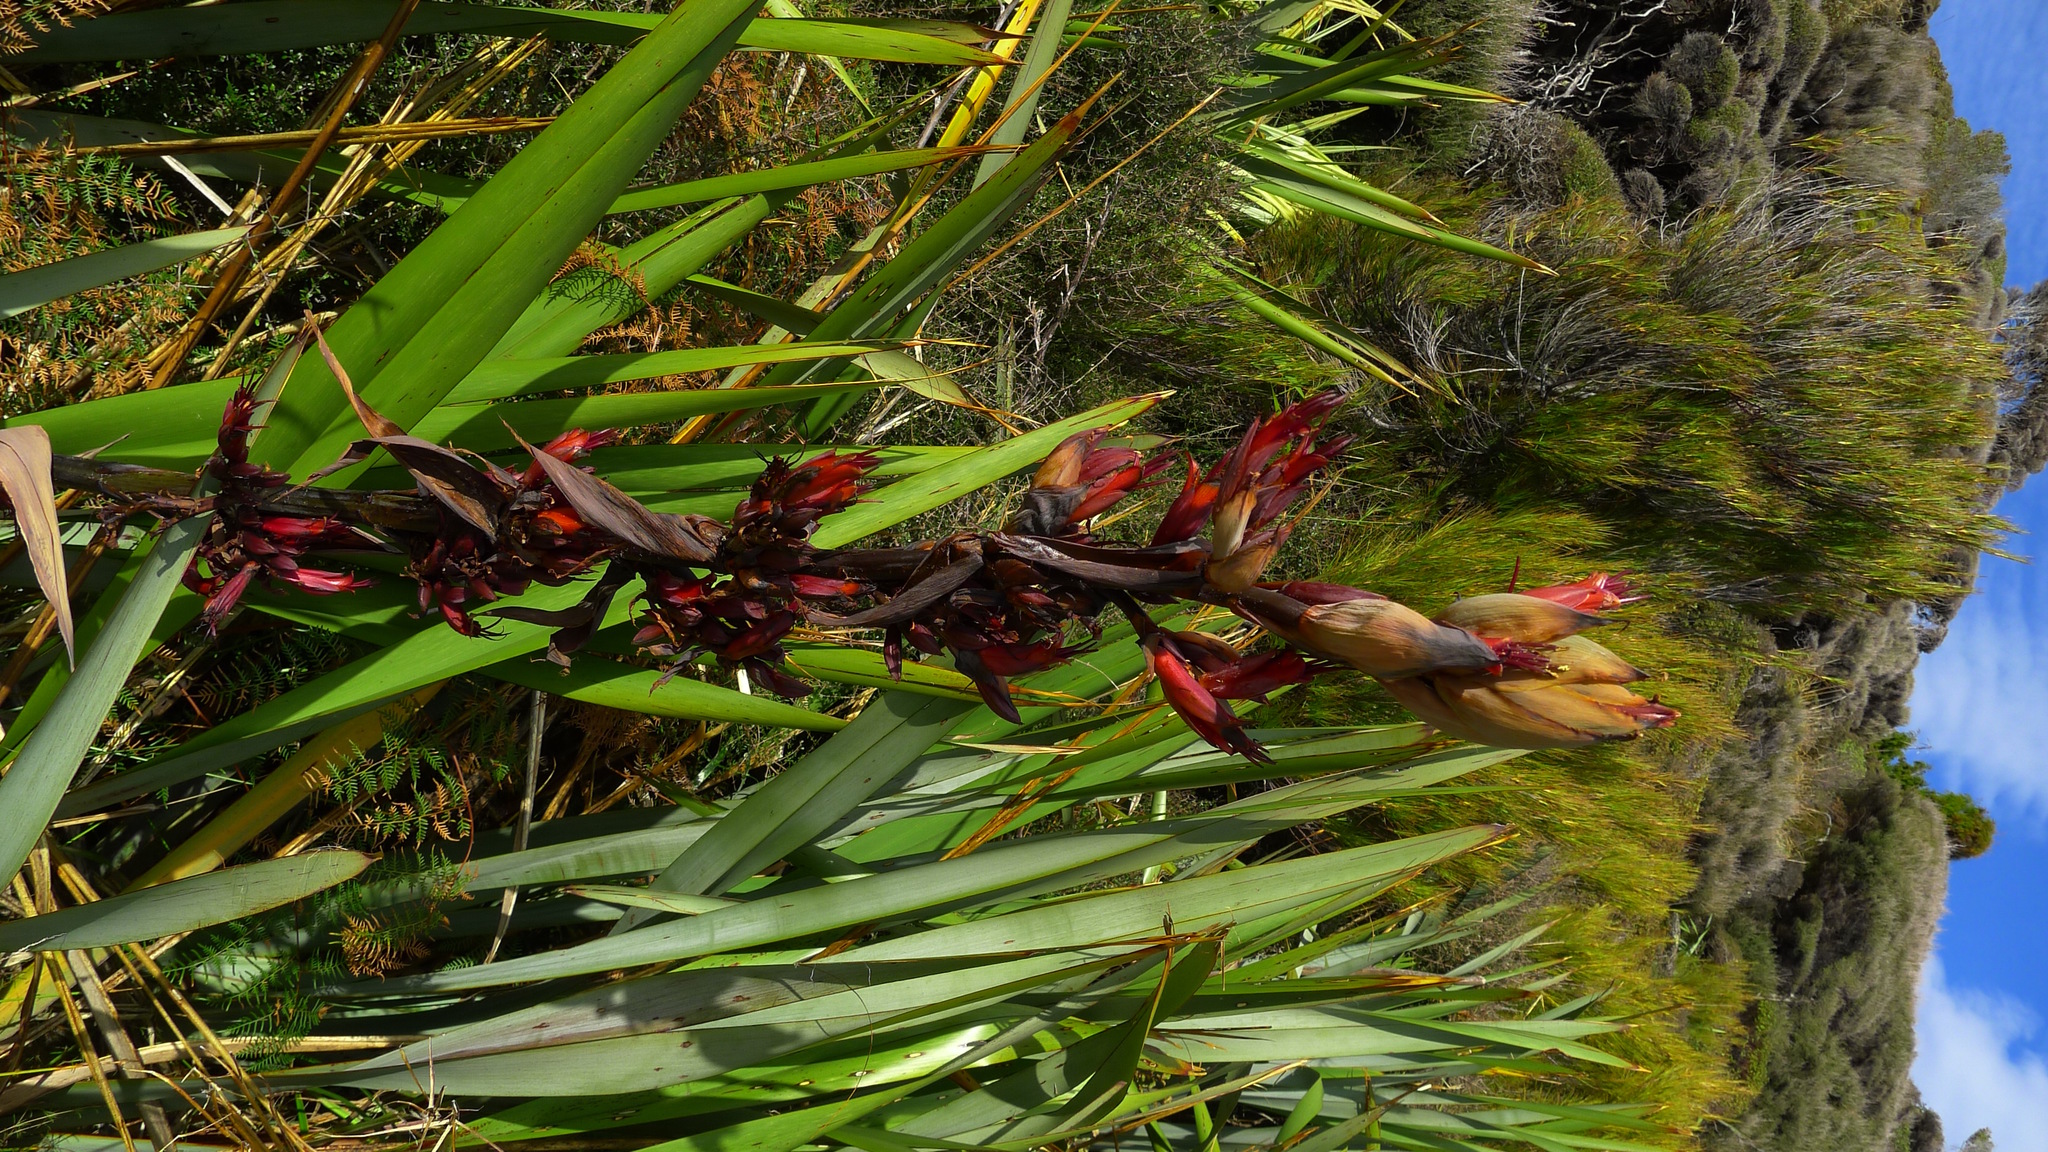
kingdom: Plantae
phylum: Tracheophyta
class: Liliopsida
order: Asparagales
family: Asphodelaceae
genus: Phormium
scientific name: Phormium tenax
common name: New zealand flax
